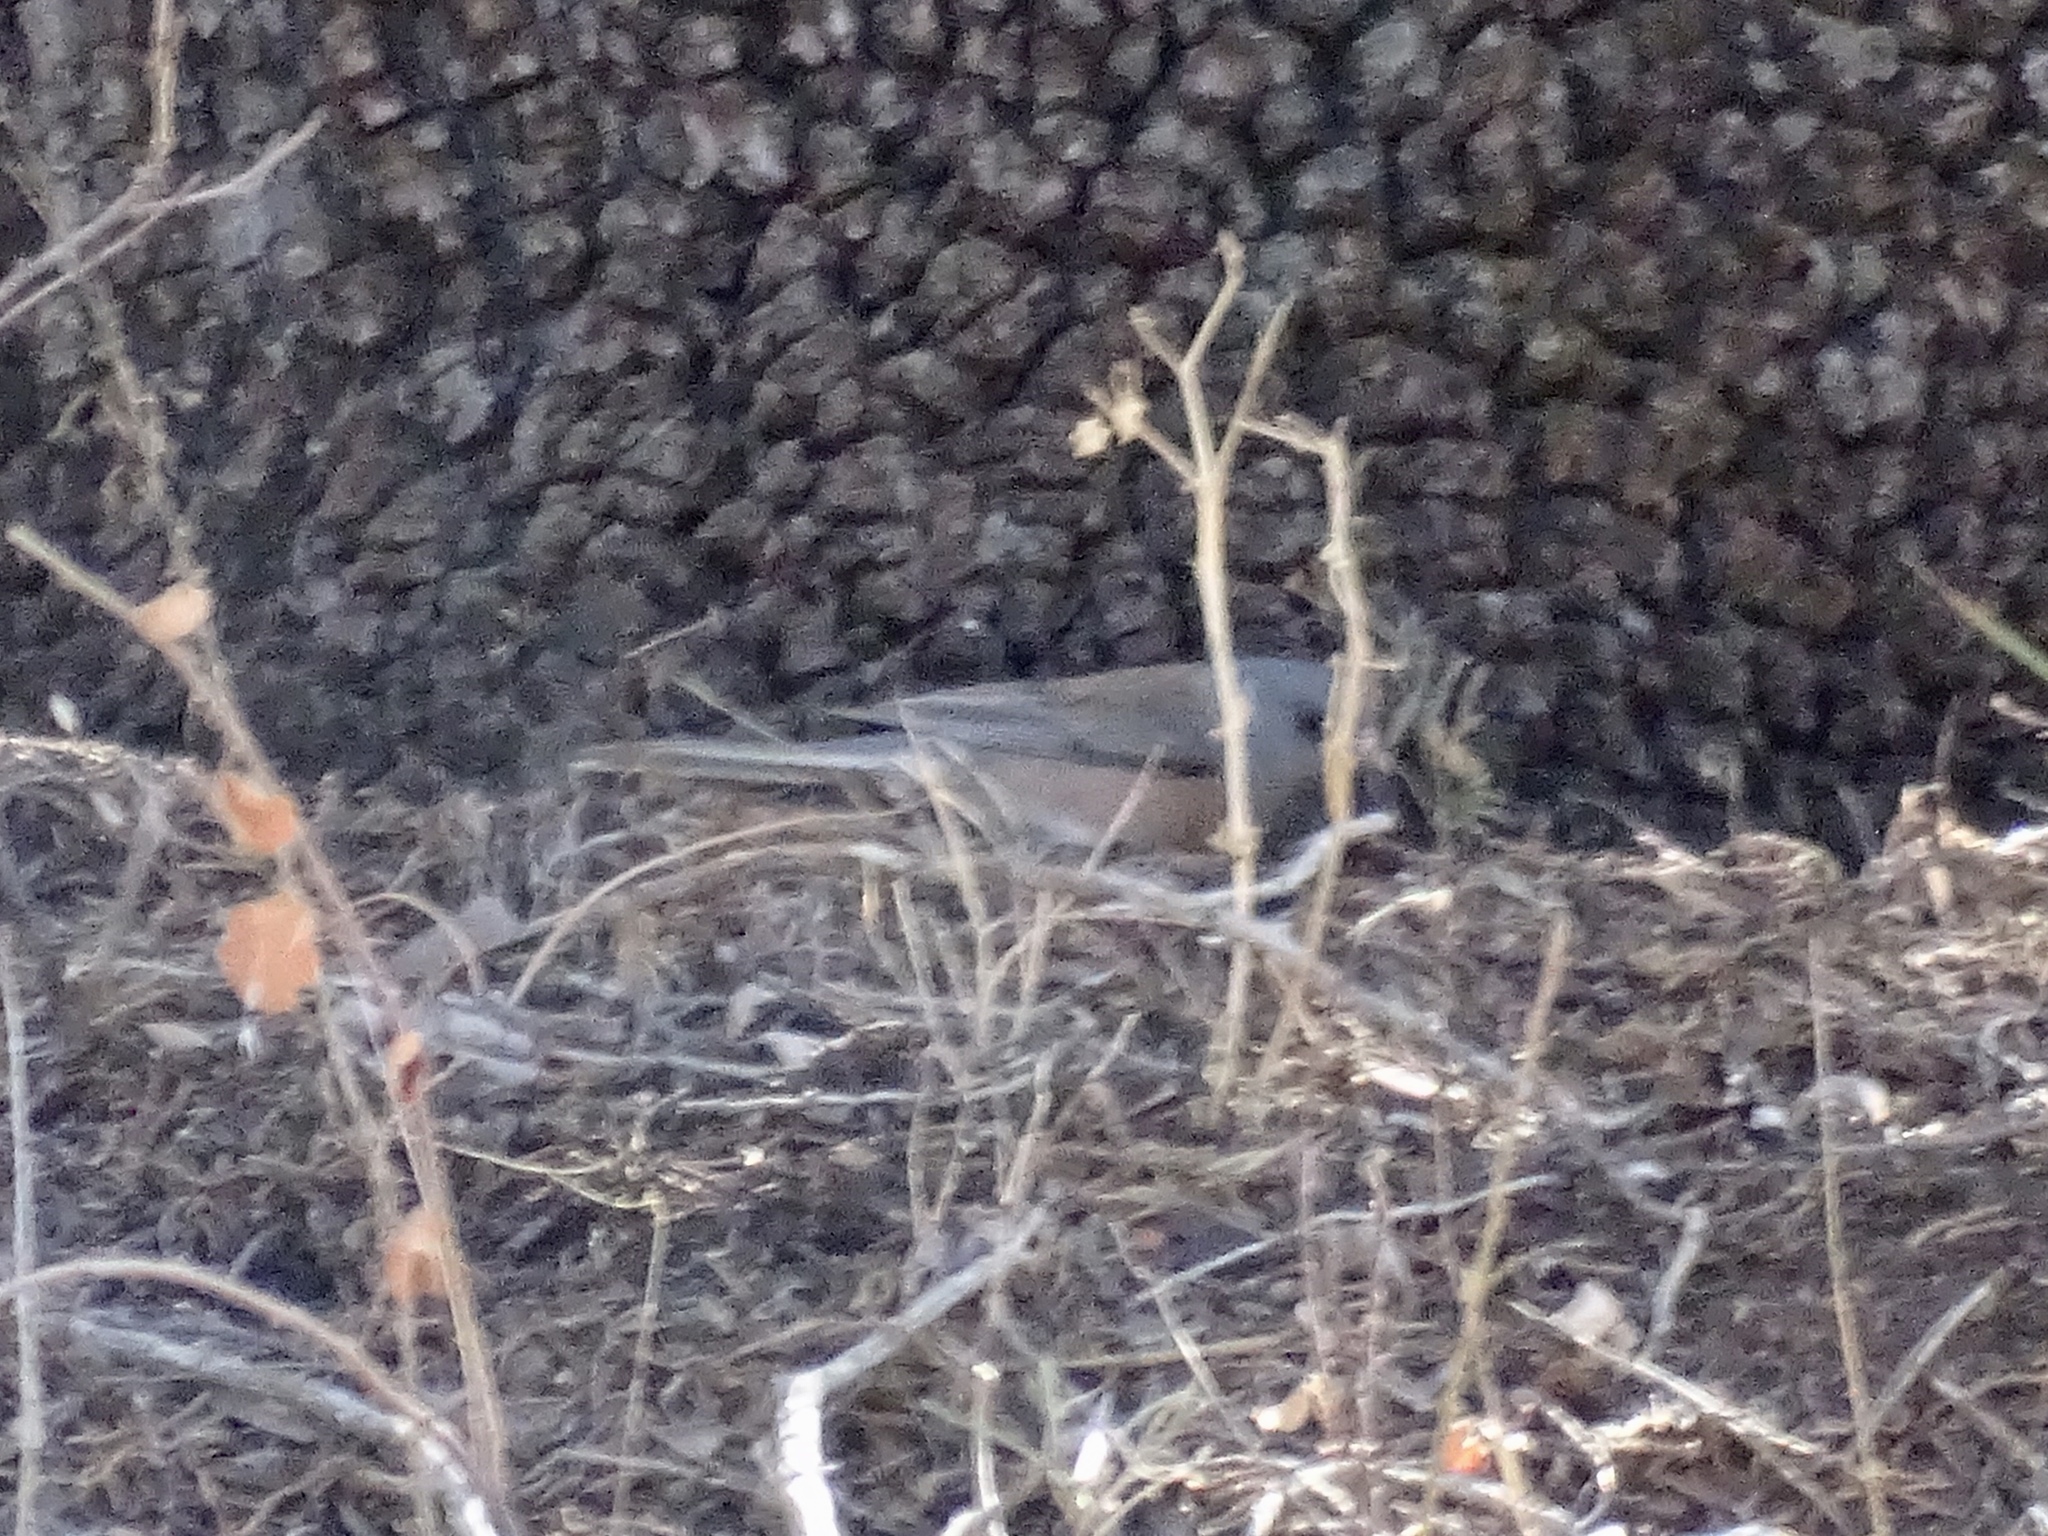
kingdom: Animalia
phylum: Chordata
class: Aves
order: Passeriformes
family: Passerellidae
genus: Junco
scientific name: Junco hyemalis
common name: Dark-eyed junco
